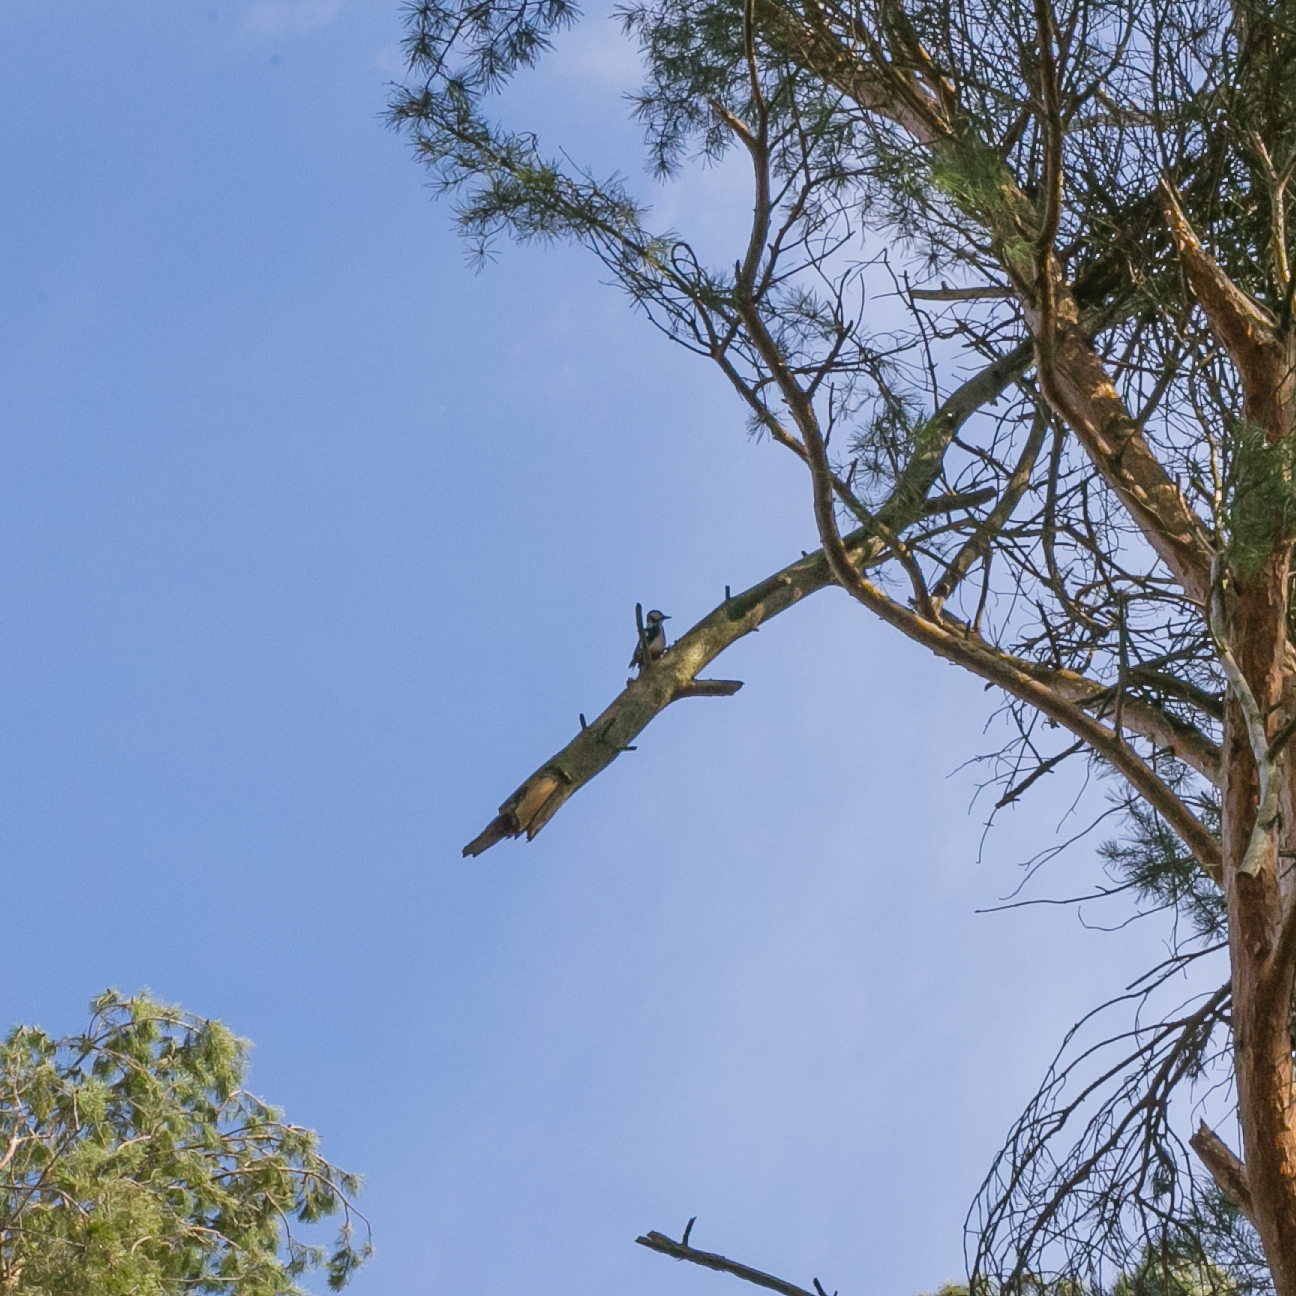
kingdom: Animalia
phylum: Chordata
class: Aves
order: Piciformes
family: Picidae
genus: Dendrocopos
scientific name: Dendrocopos major
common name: Great spotted woodpecker
